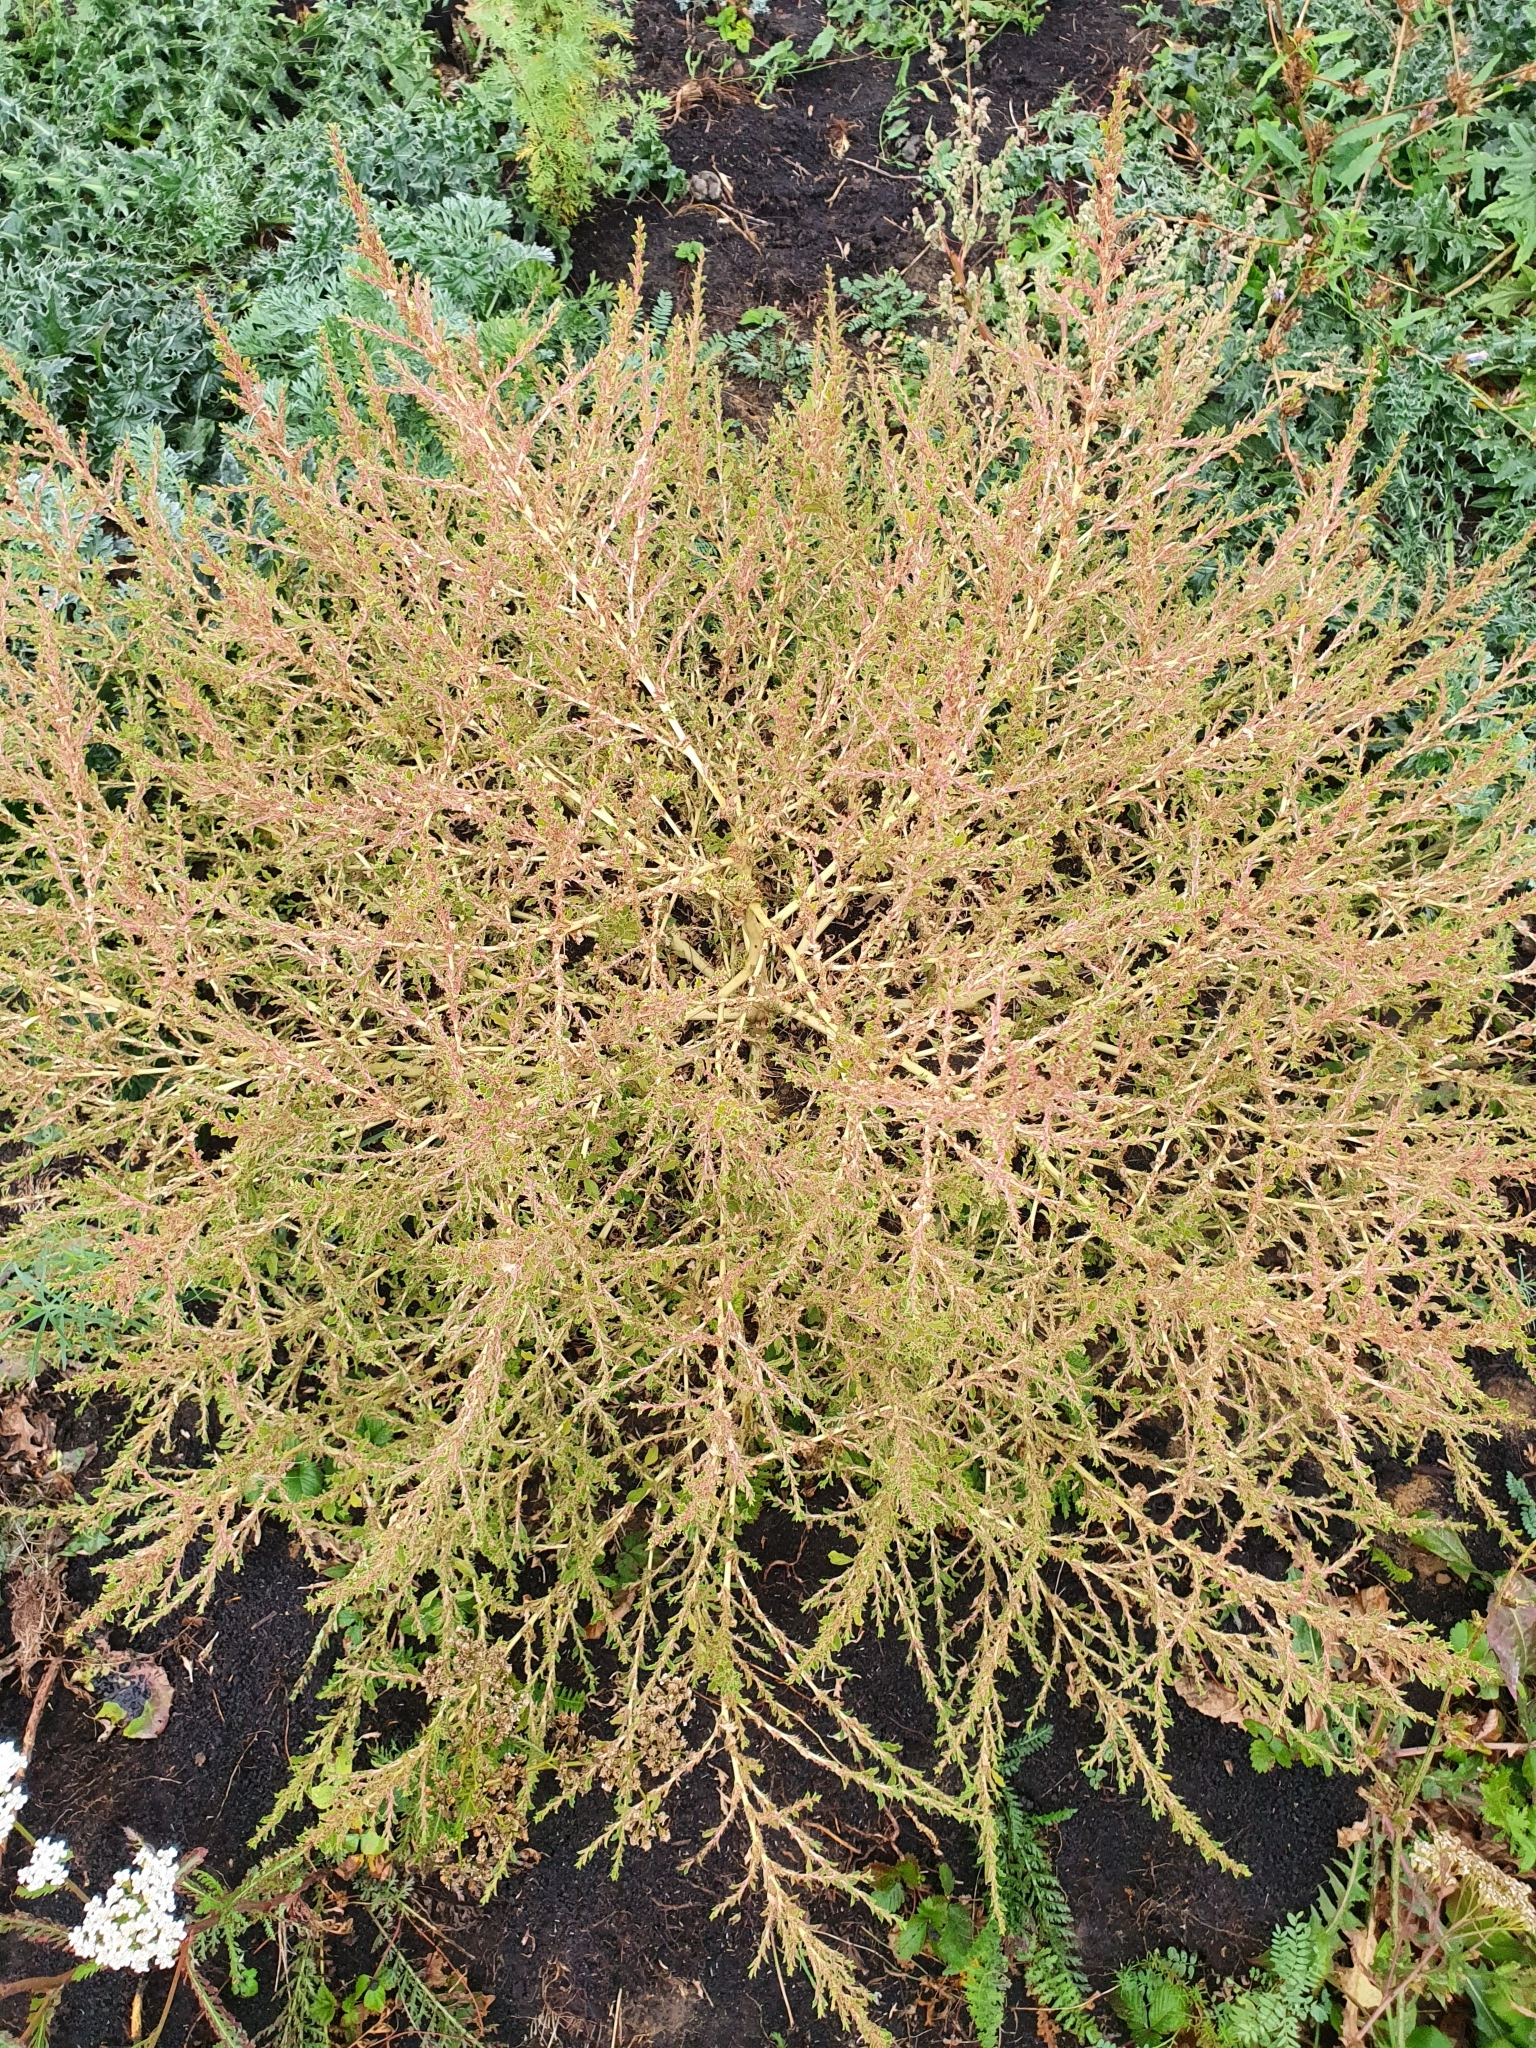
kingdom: Plantae
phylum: Tracheophyta
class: Magnoliopsida
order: Caryophyllales
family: Amaranthaceae
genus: Amaranthus
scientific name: Amaranthus albus
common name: White pigweed
